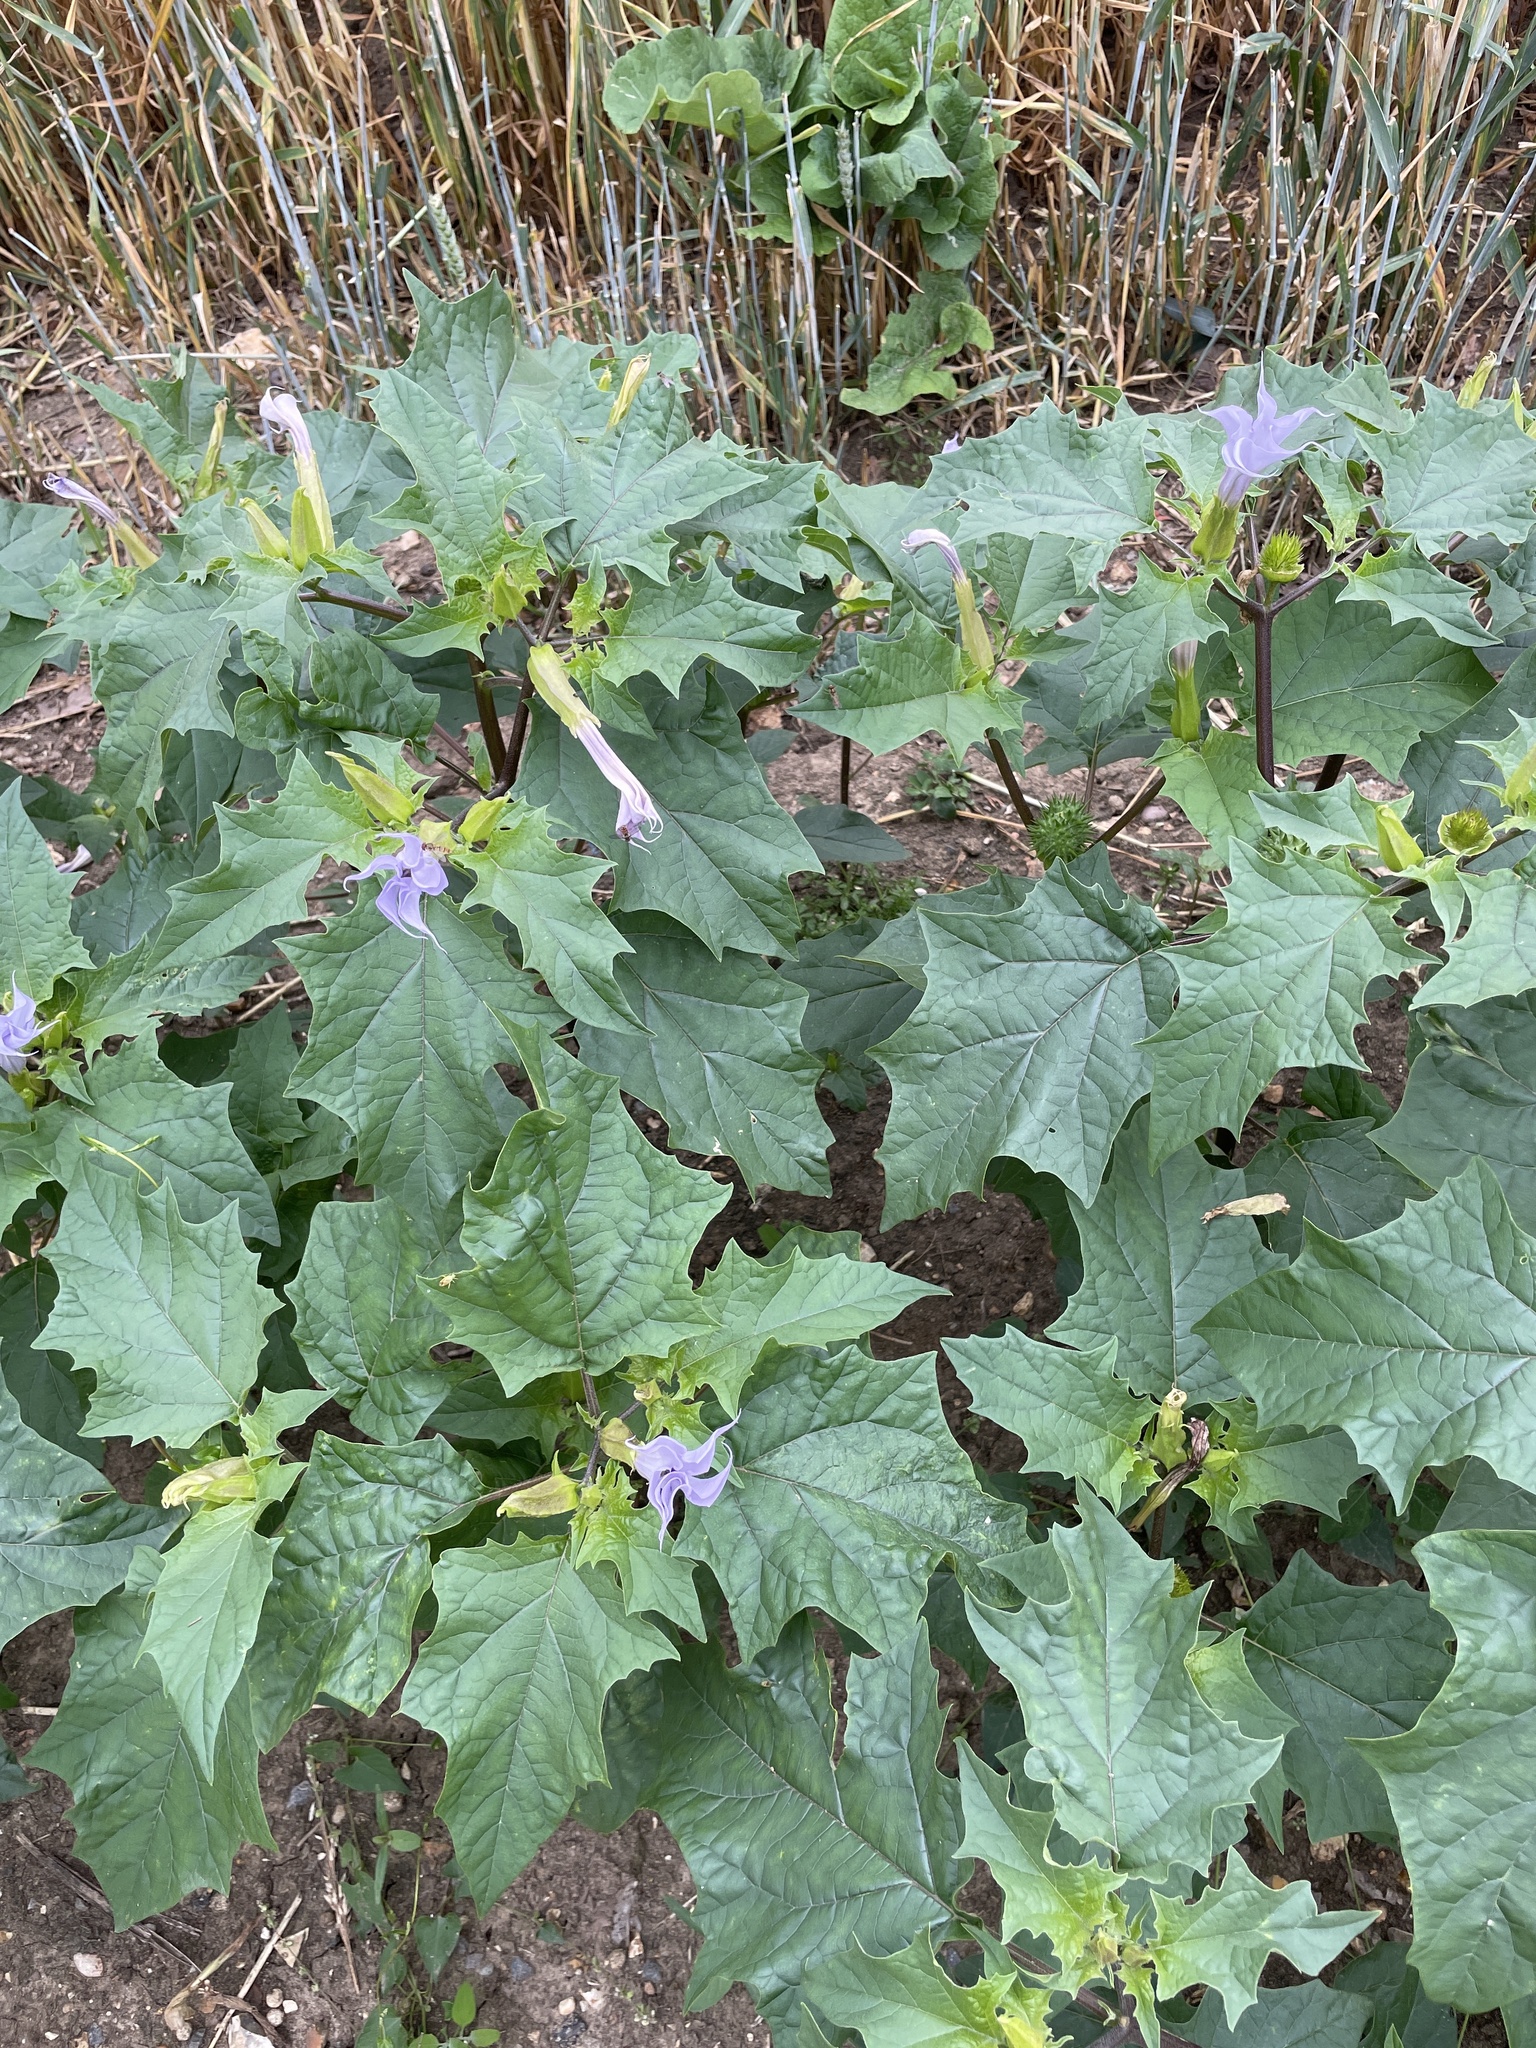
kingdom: Plantae
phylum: Tracheophyta
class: Magnoliopsida
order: Solanales
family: Solanaceae
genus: Datura
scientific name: Datura stramonium
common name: Thorn-apple
